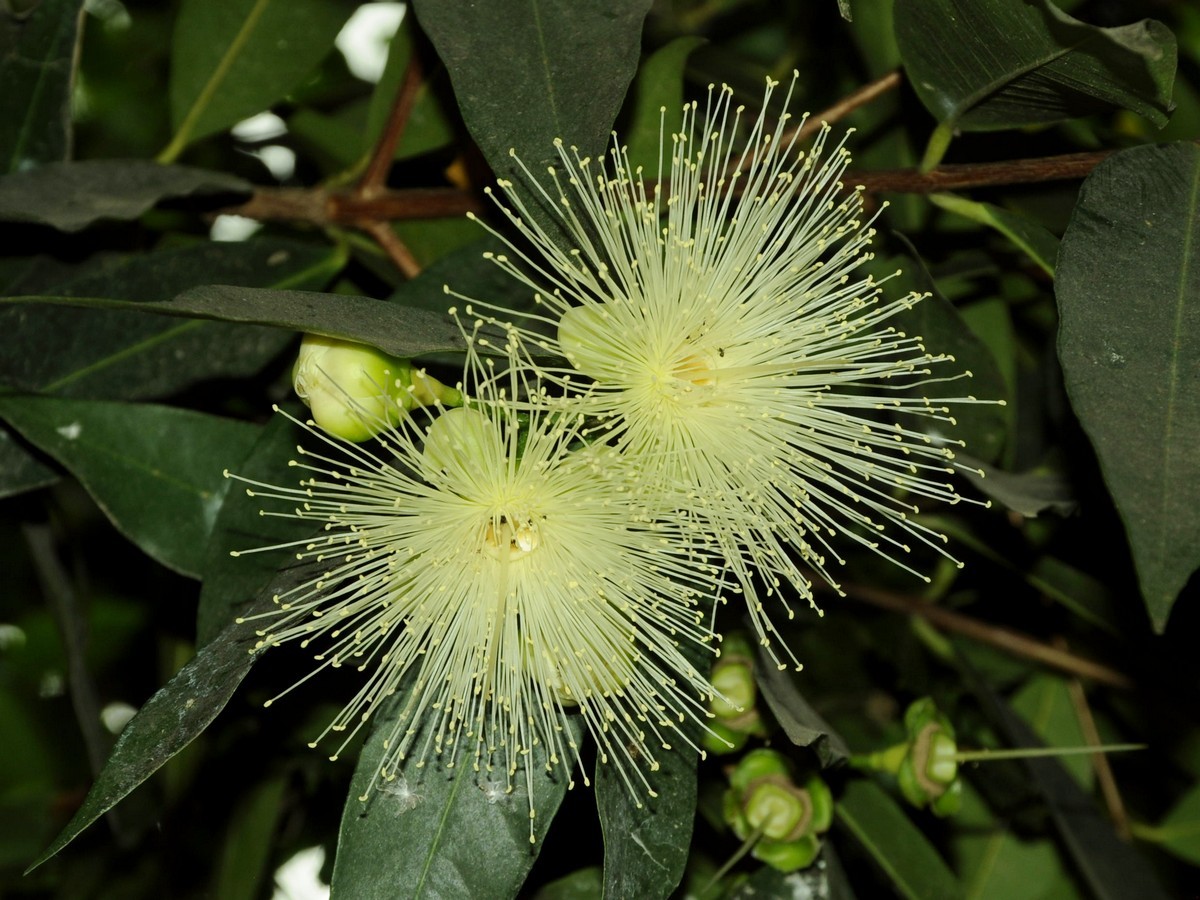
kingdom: Plantae
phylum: Tracheophyta
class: Magnoliopsida
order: Myrtales
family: Myrtaceae
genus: Syzygium
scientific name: Syzygium jambos
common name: Malabar plum
